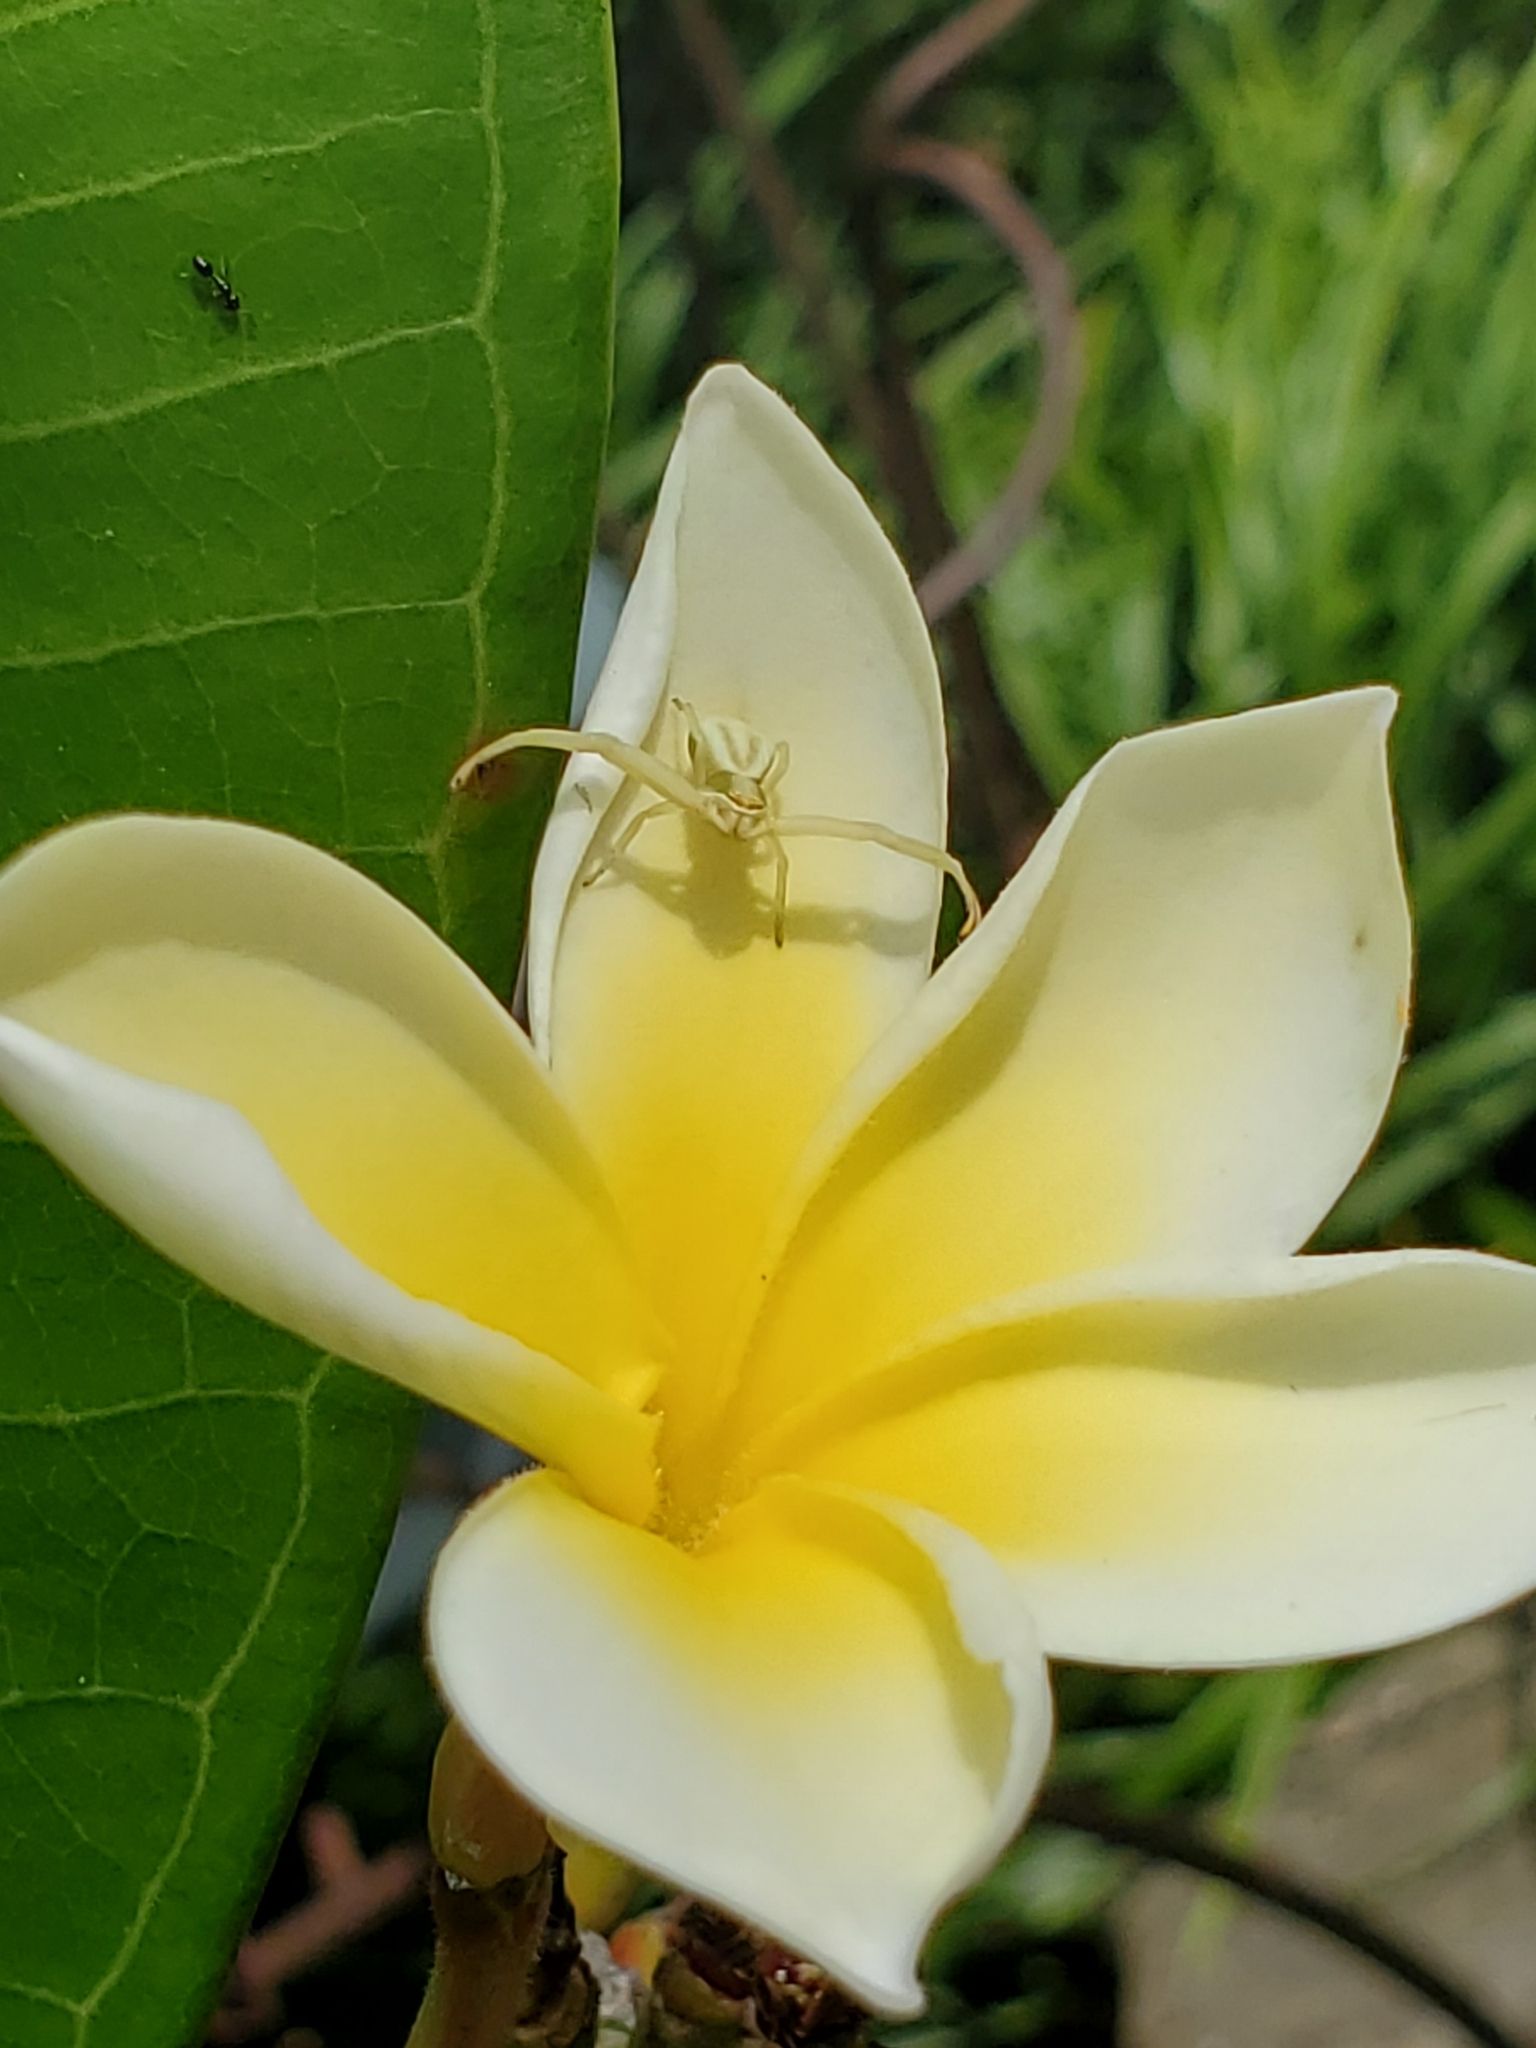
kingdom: Animalia
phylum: Arthropoda
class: Arachnida
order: Araneae
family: Thomisidae
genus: Misumenoides
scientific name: Misumenoides formosipes
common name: White-banded crab spider
